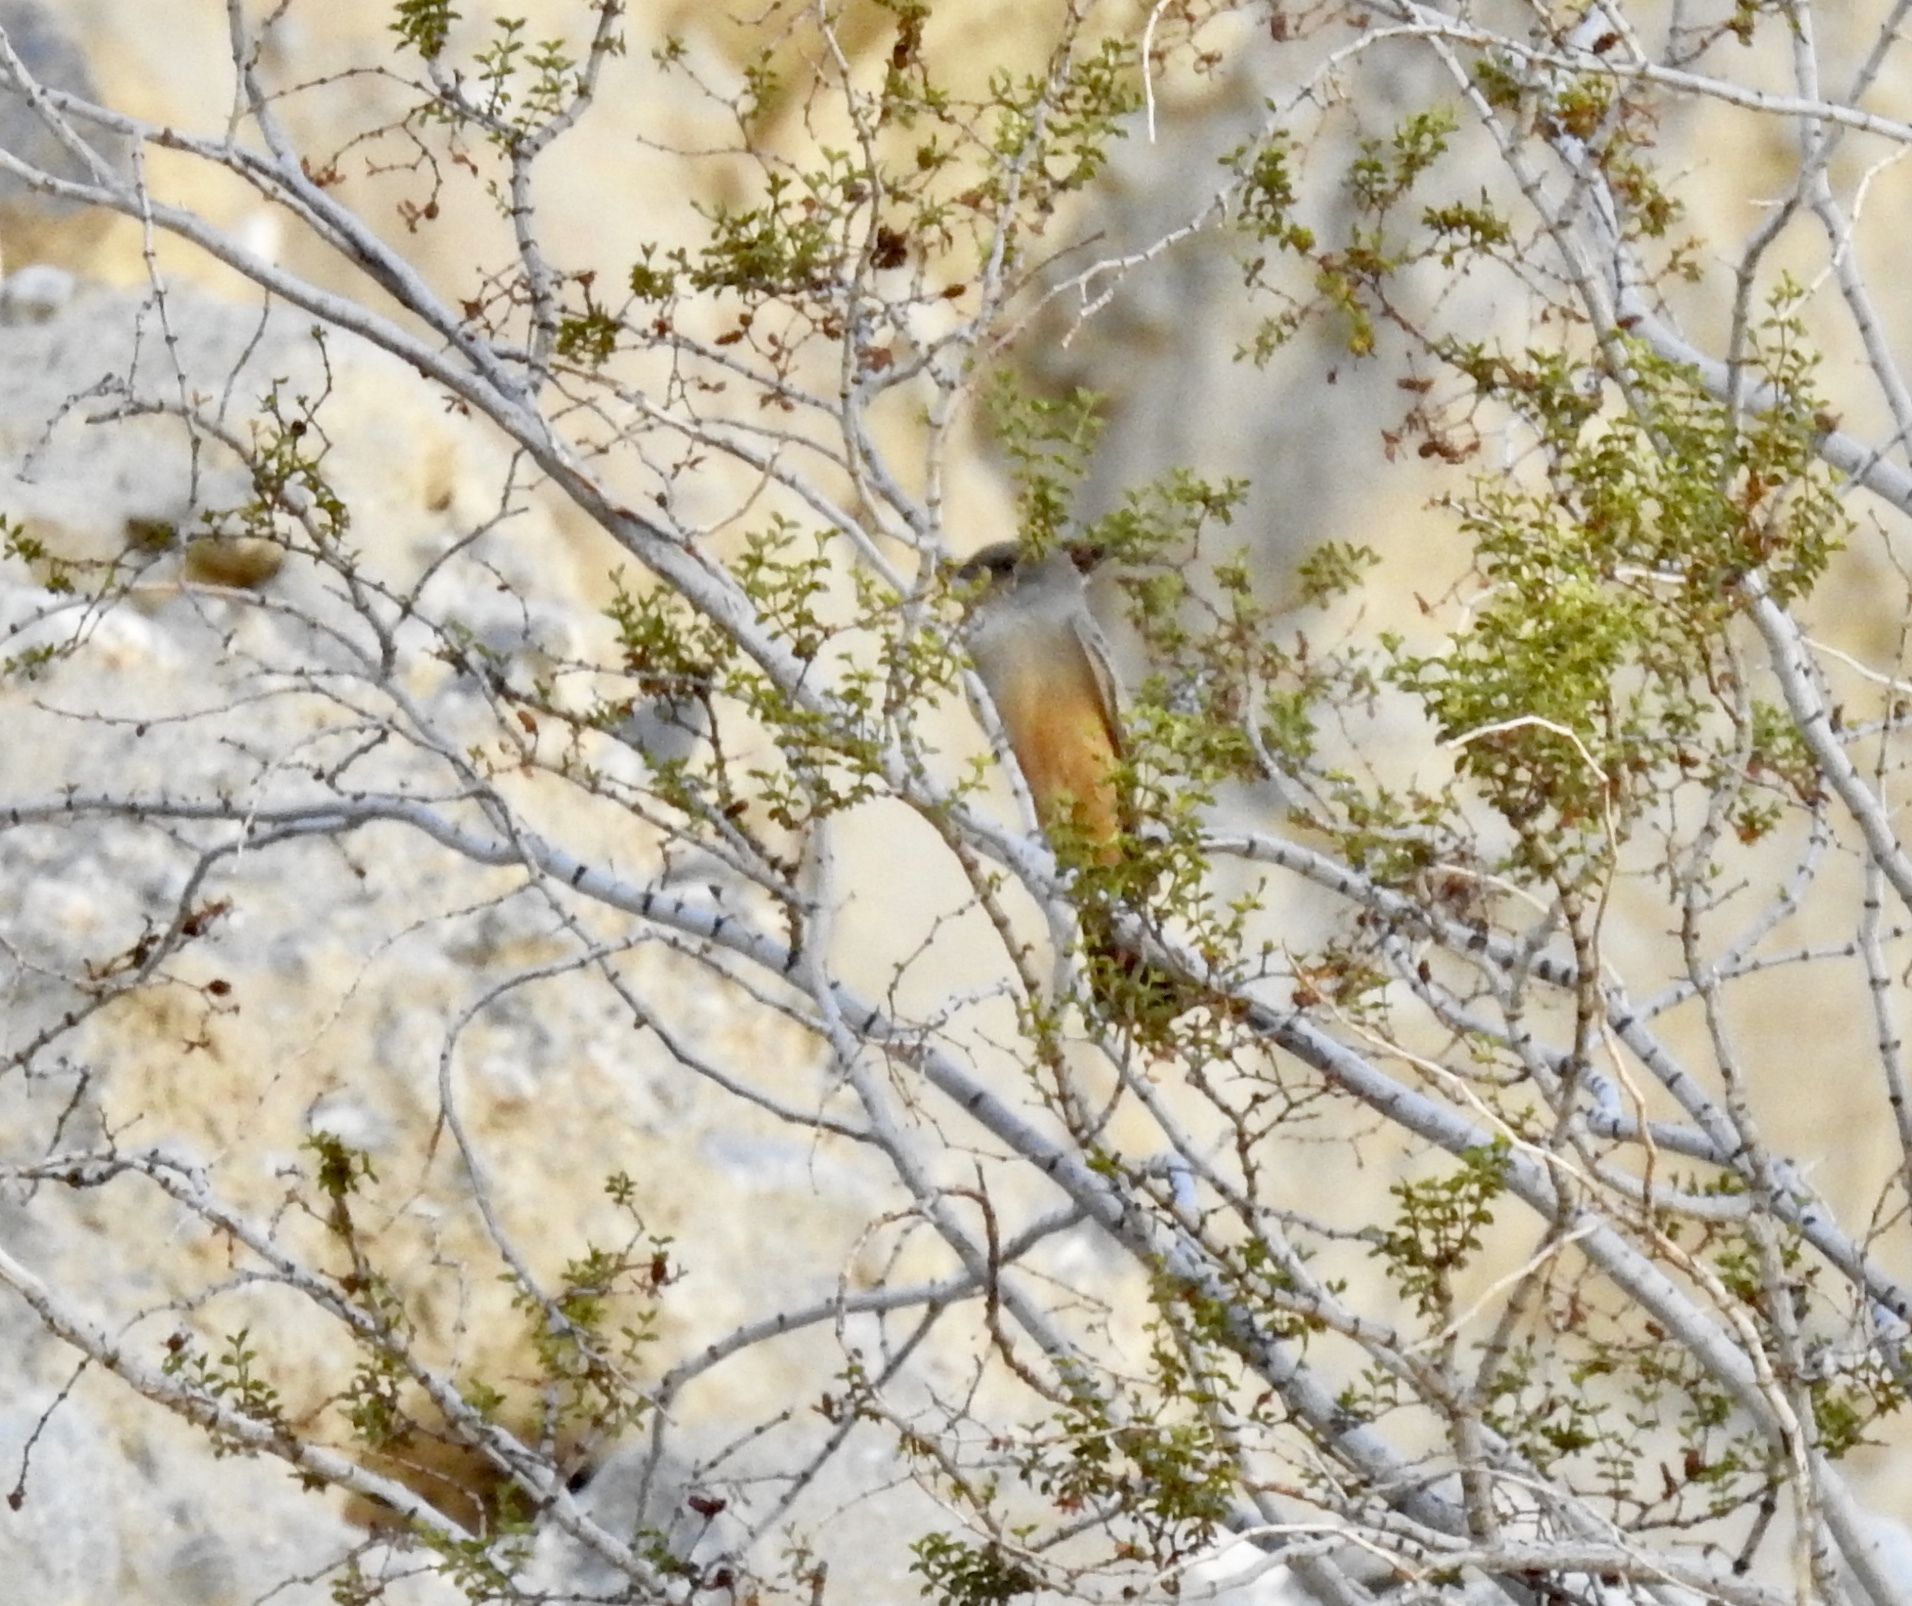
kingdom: Animalia
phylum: Chordata
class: Aves
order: Passeriformes
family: Tyrannidae
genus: Sayornis
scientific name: Sayornis saya
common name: Say's phoebe
